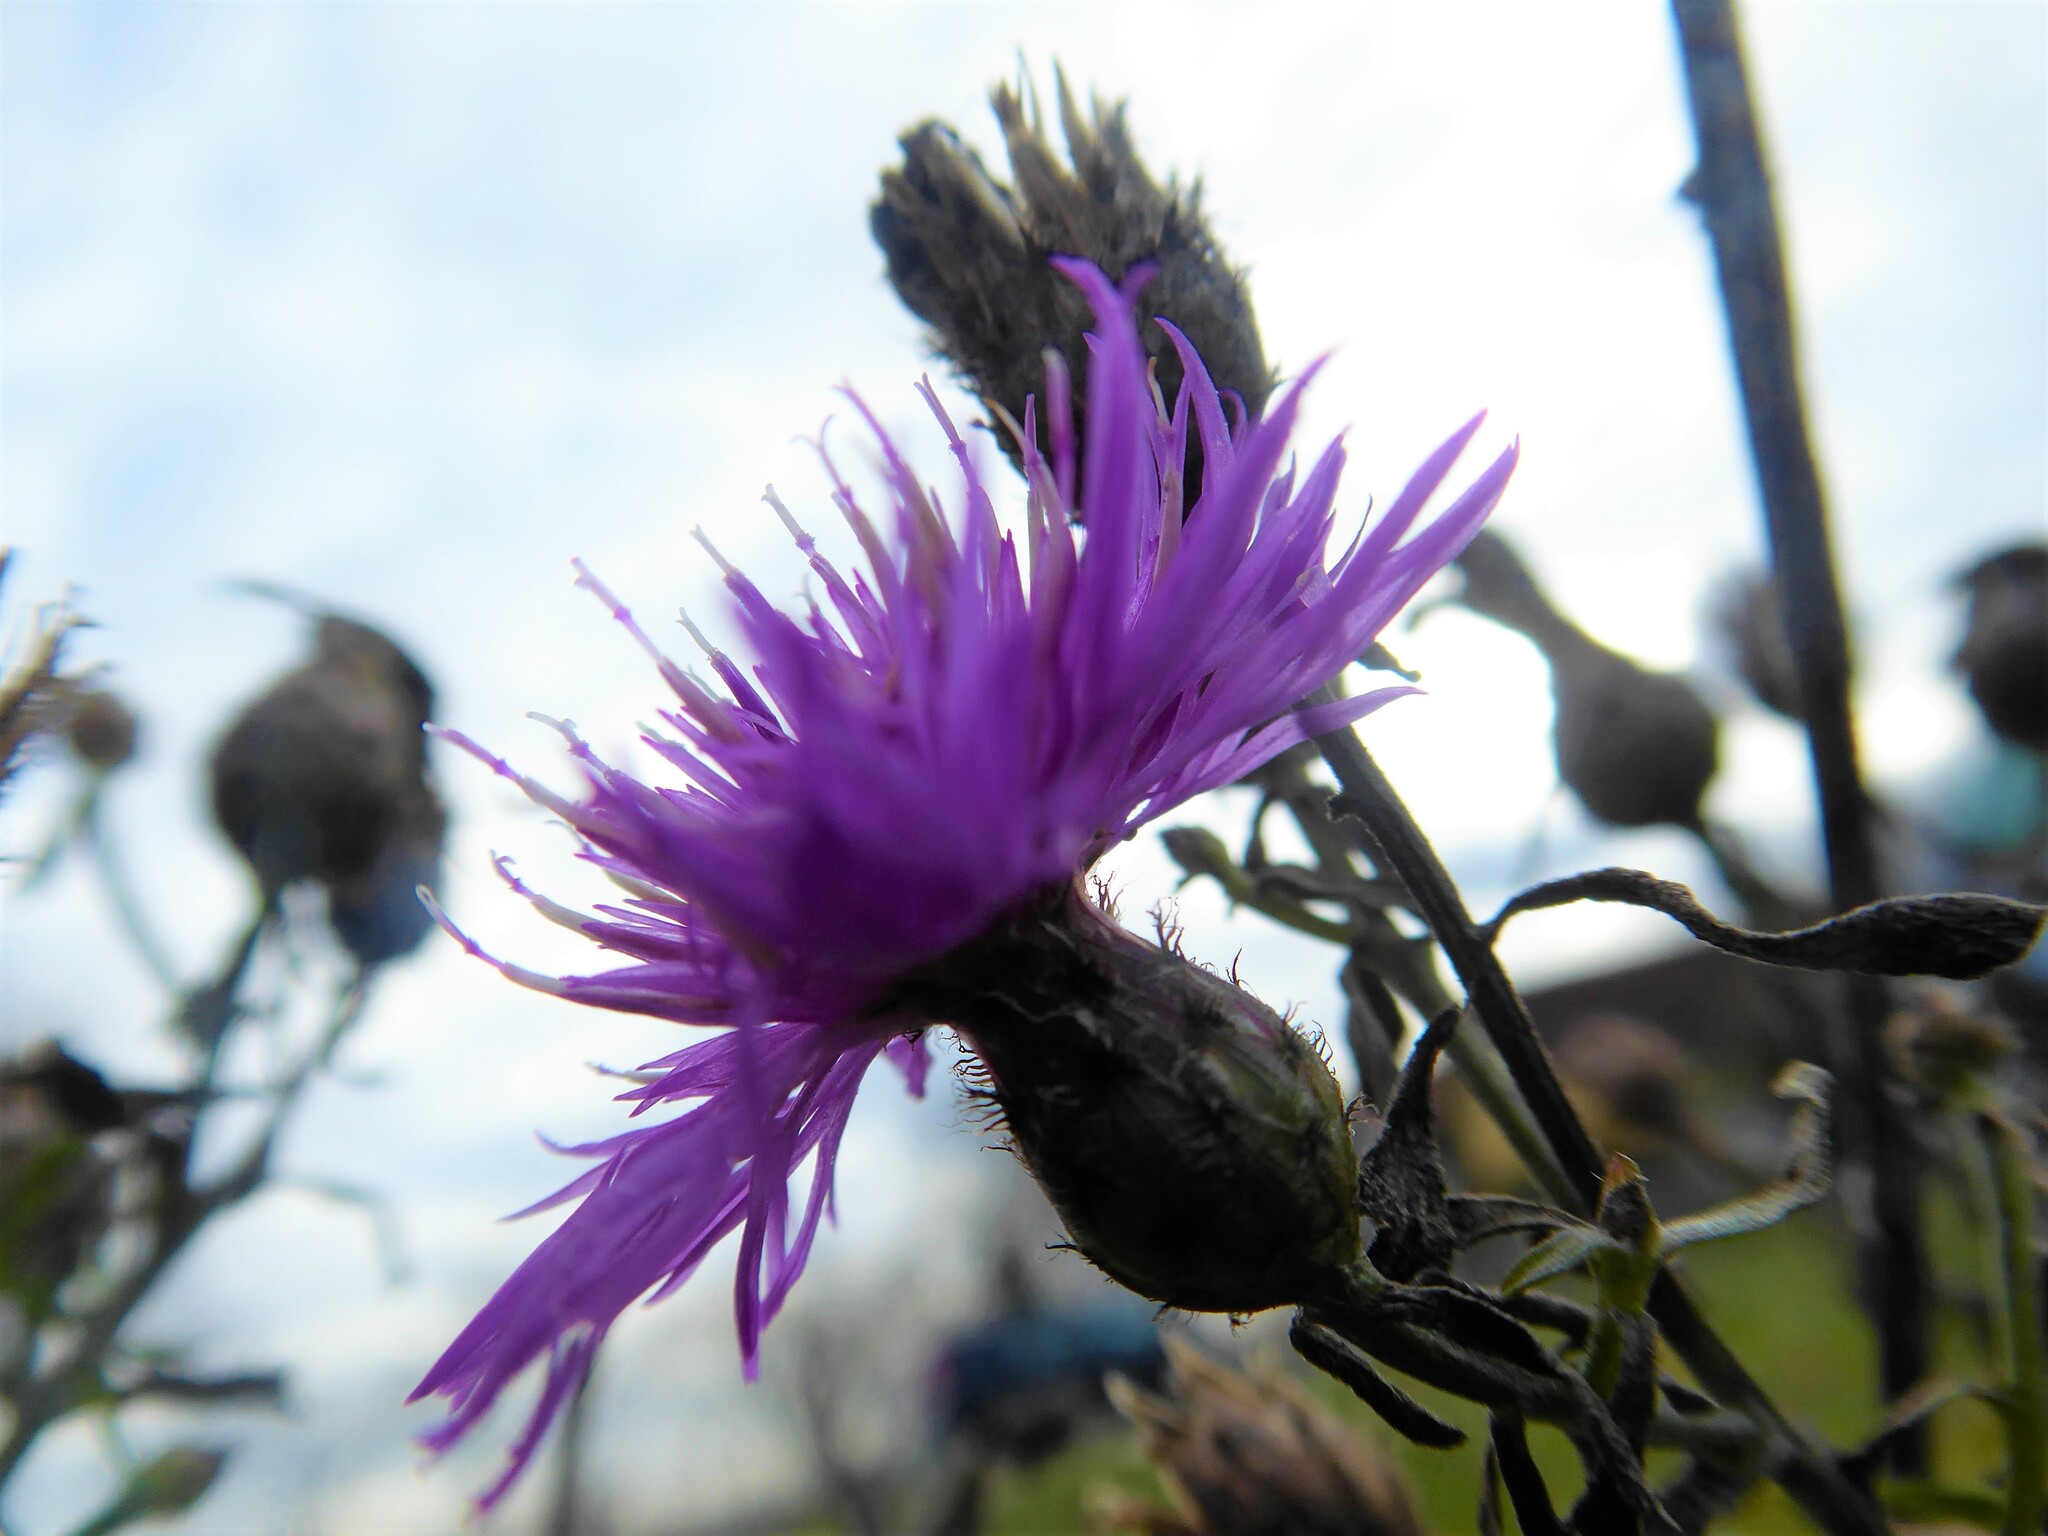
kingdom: Plantae
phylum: Tracheophyta
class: Magnoliopsida
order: Asterales
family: Asteraceae
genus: Centaurea
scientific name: Centaurea stoebe
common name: Spotted knapweed
